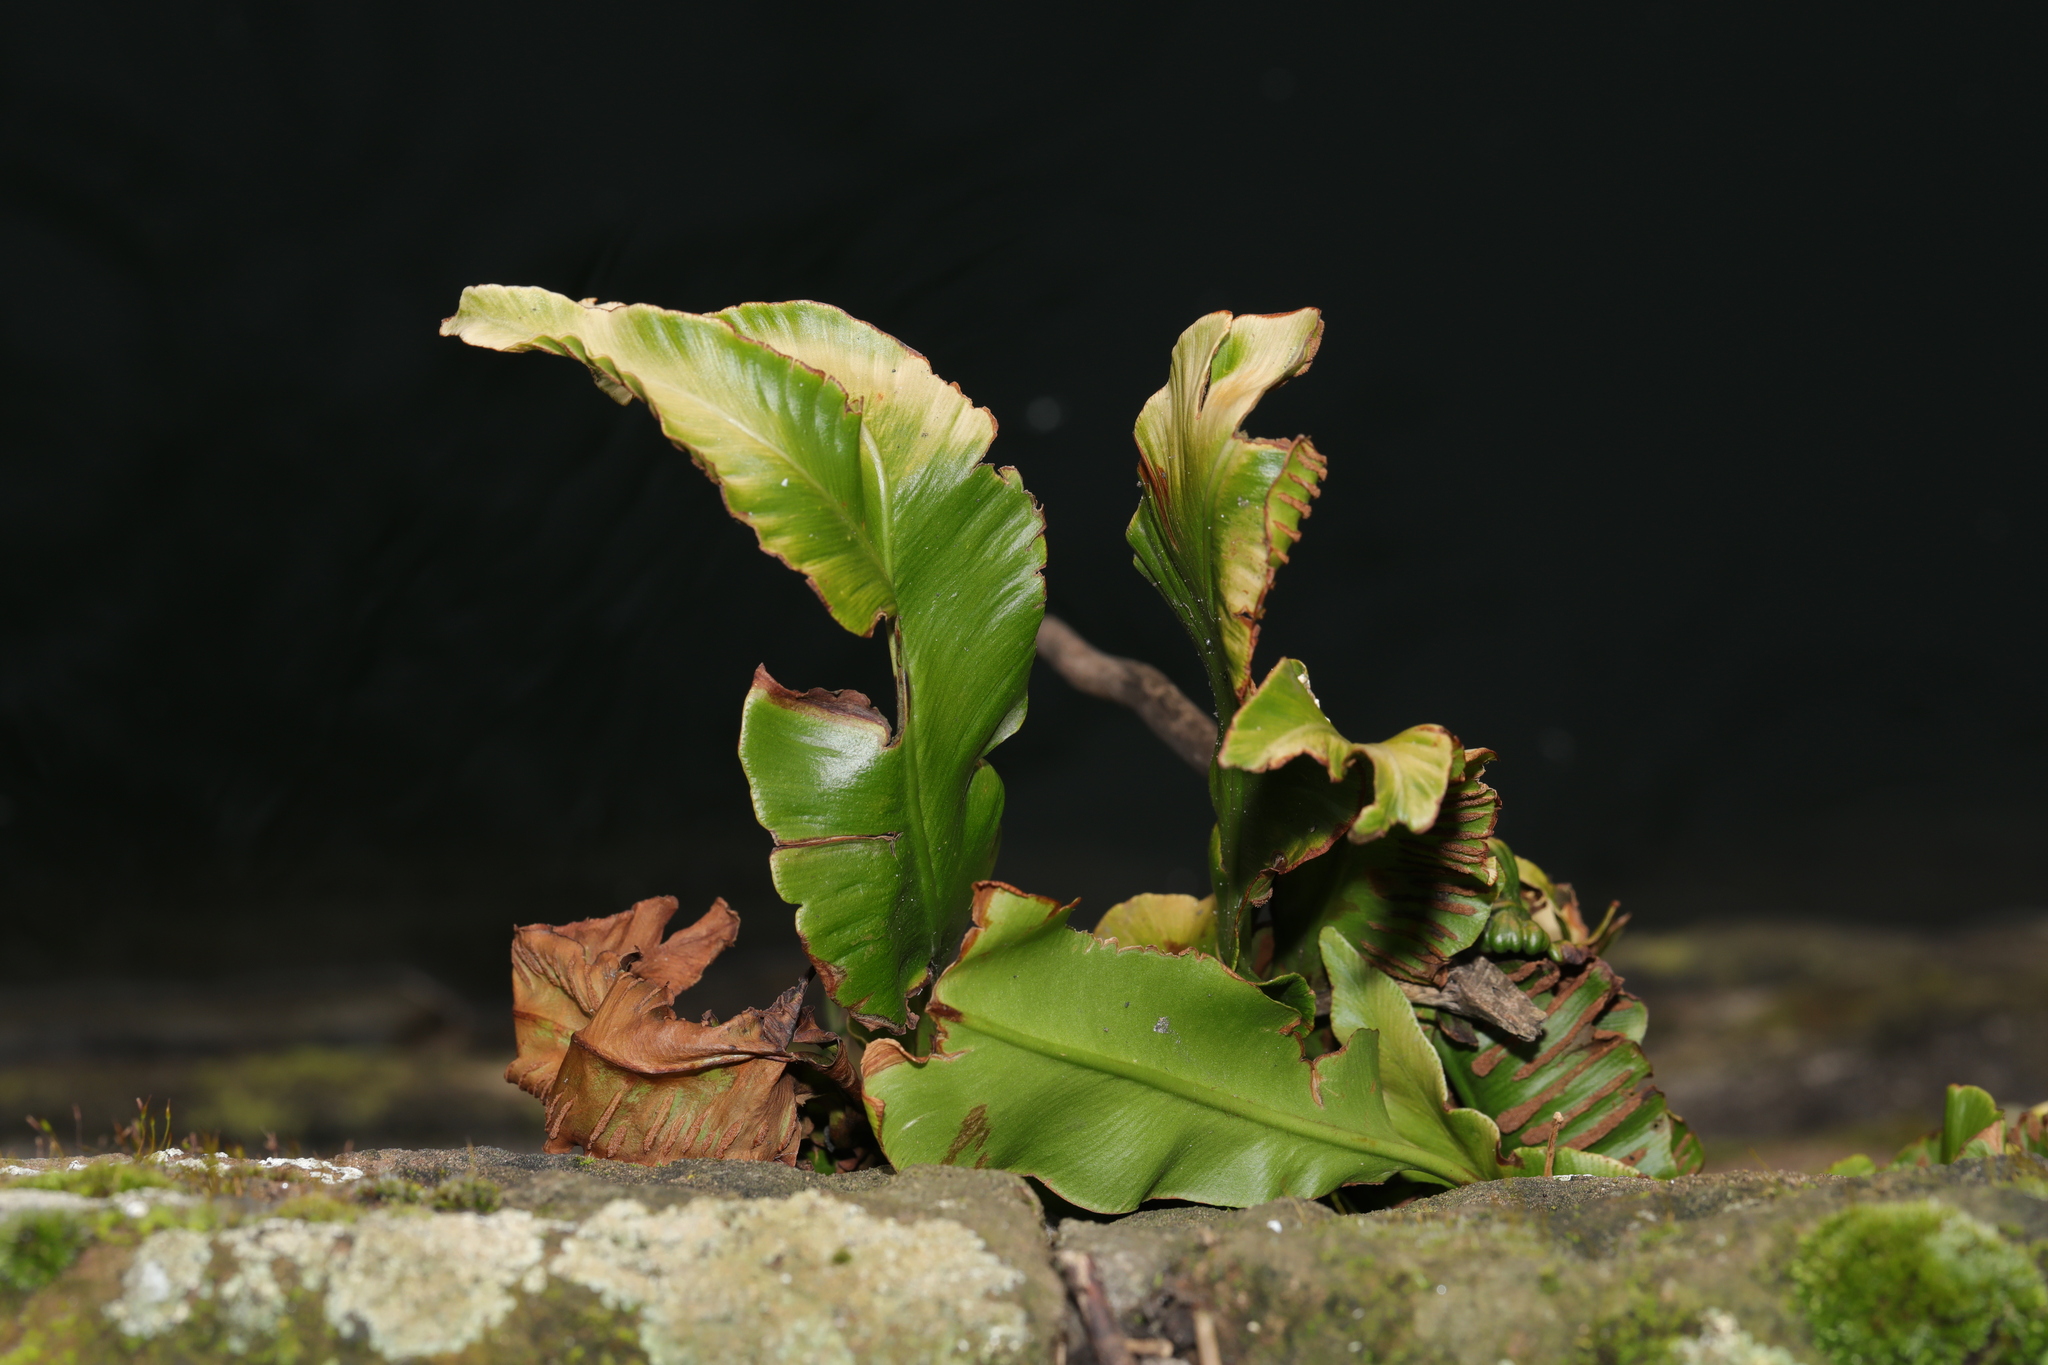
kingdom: Plantae
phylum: Tracheophyta
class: Polypodiopsida
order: Polypodiales
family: Aspleniaceae
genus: Asplenium
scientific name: Asplenium scolopendrium
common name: Hart's-tongue fern
